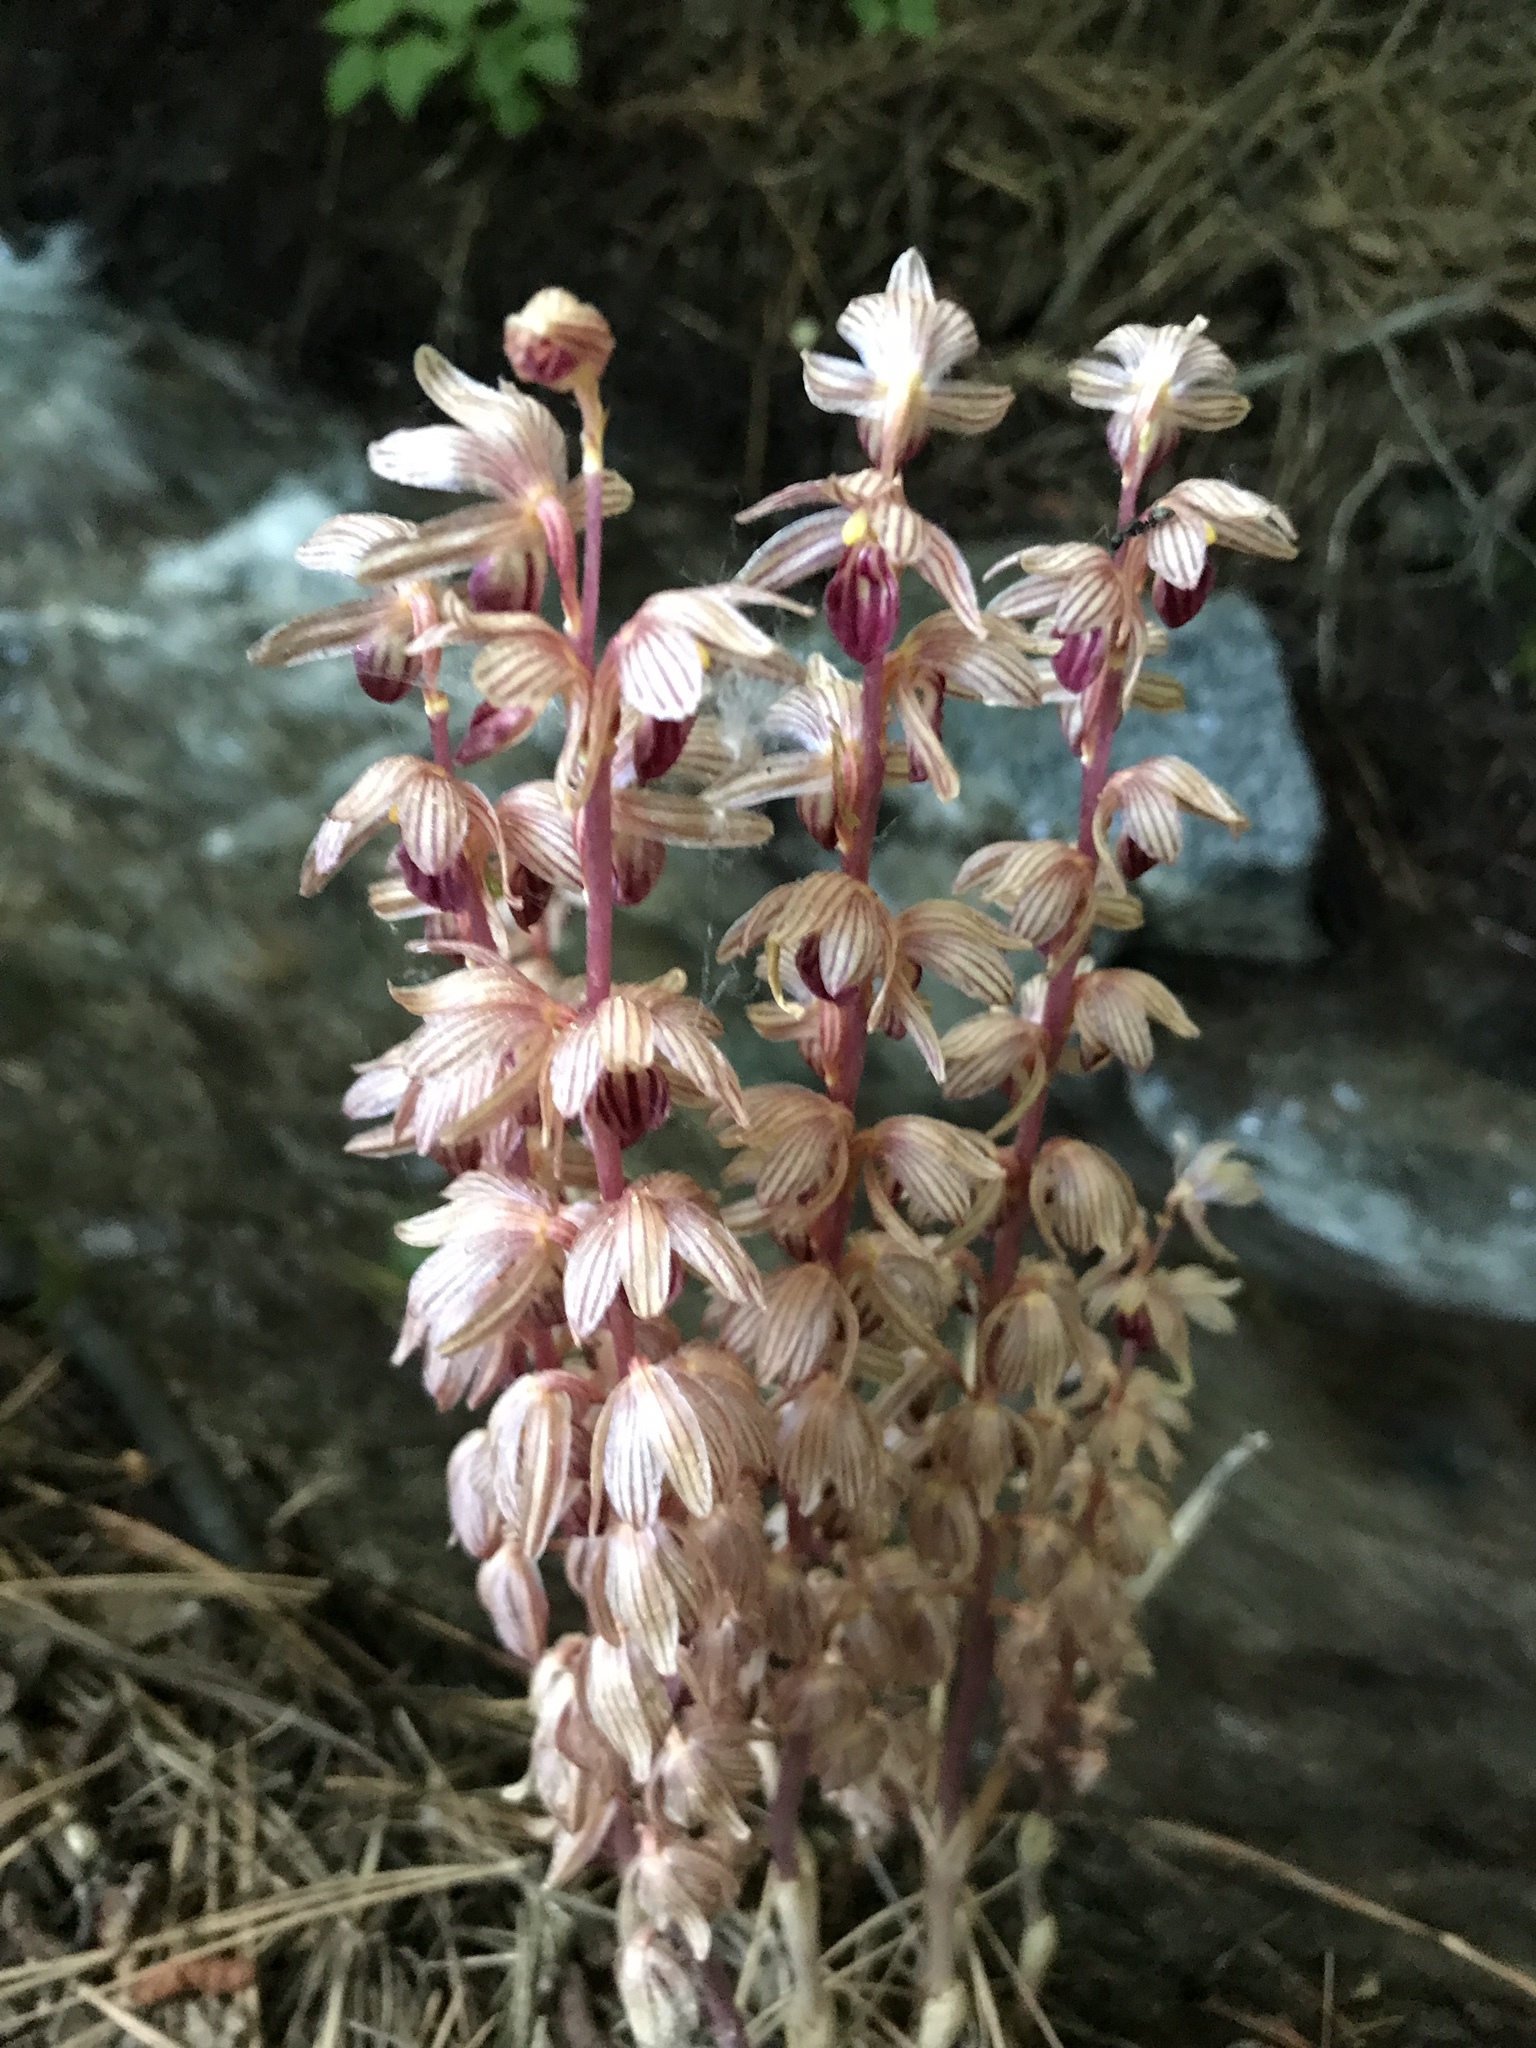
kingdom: Plantae
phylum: Tracheophyta
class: Liliopsida
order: Asparagales
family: Orchidaceae
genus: Corallorhiza
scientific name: Corallorhiza striata
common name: Hooded coralroot
